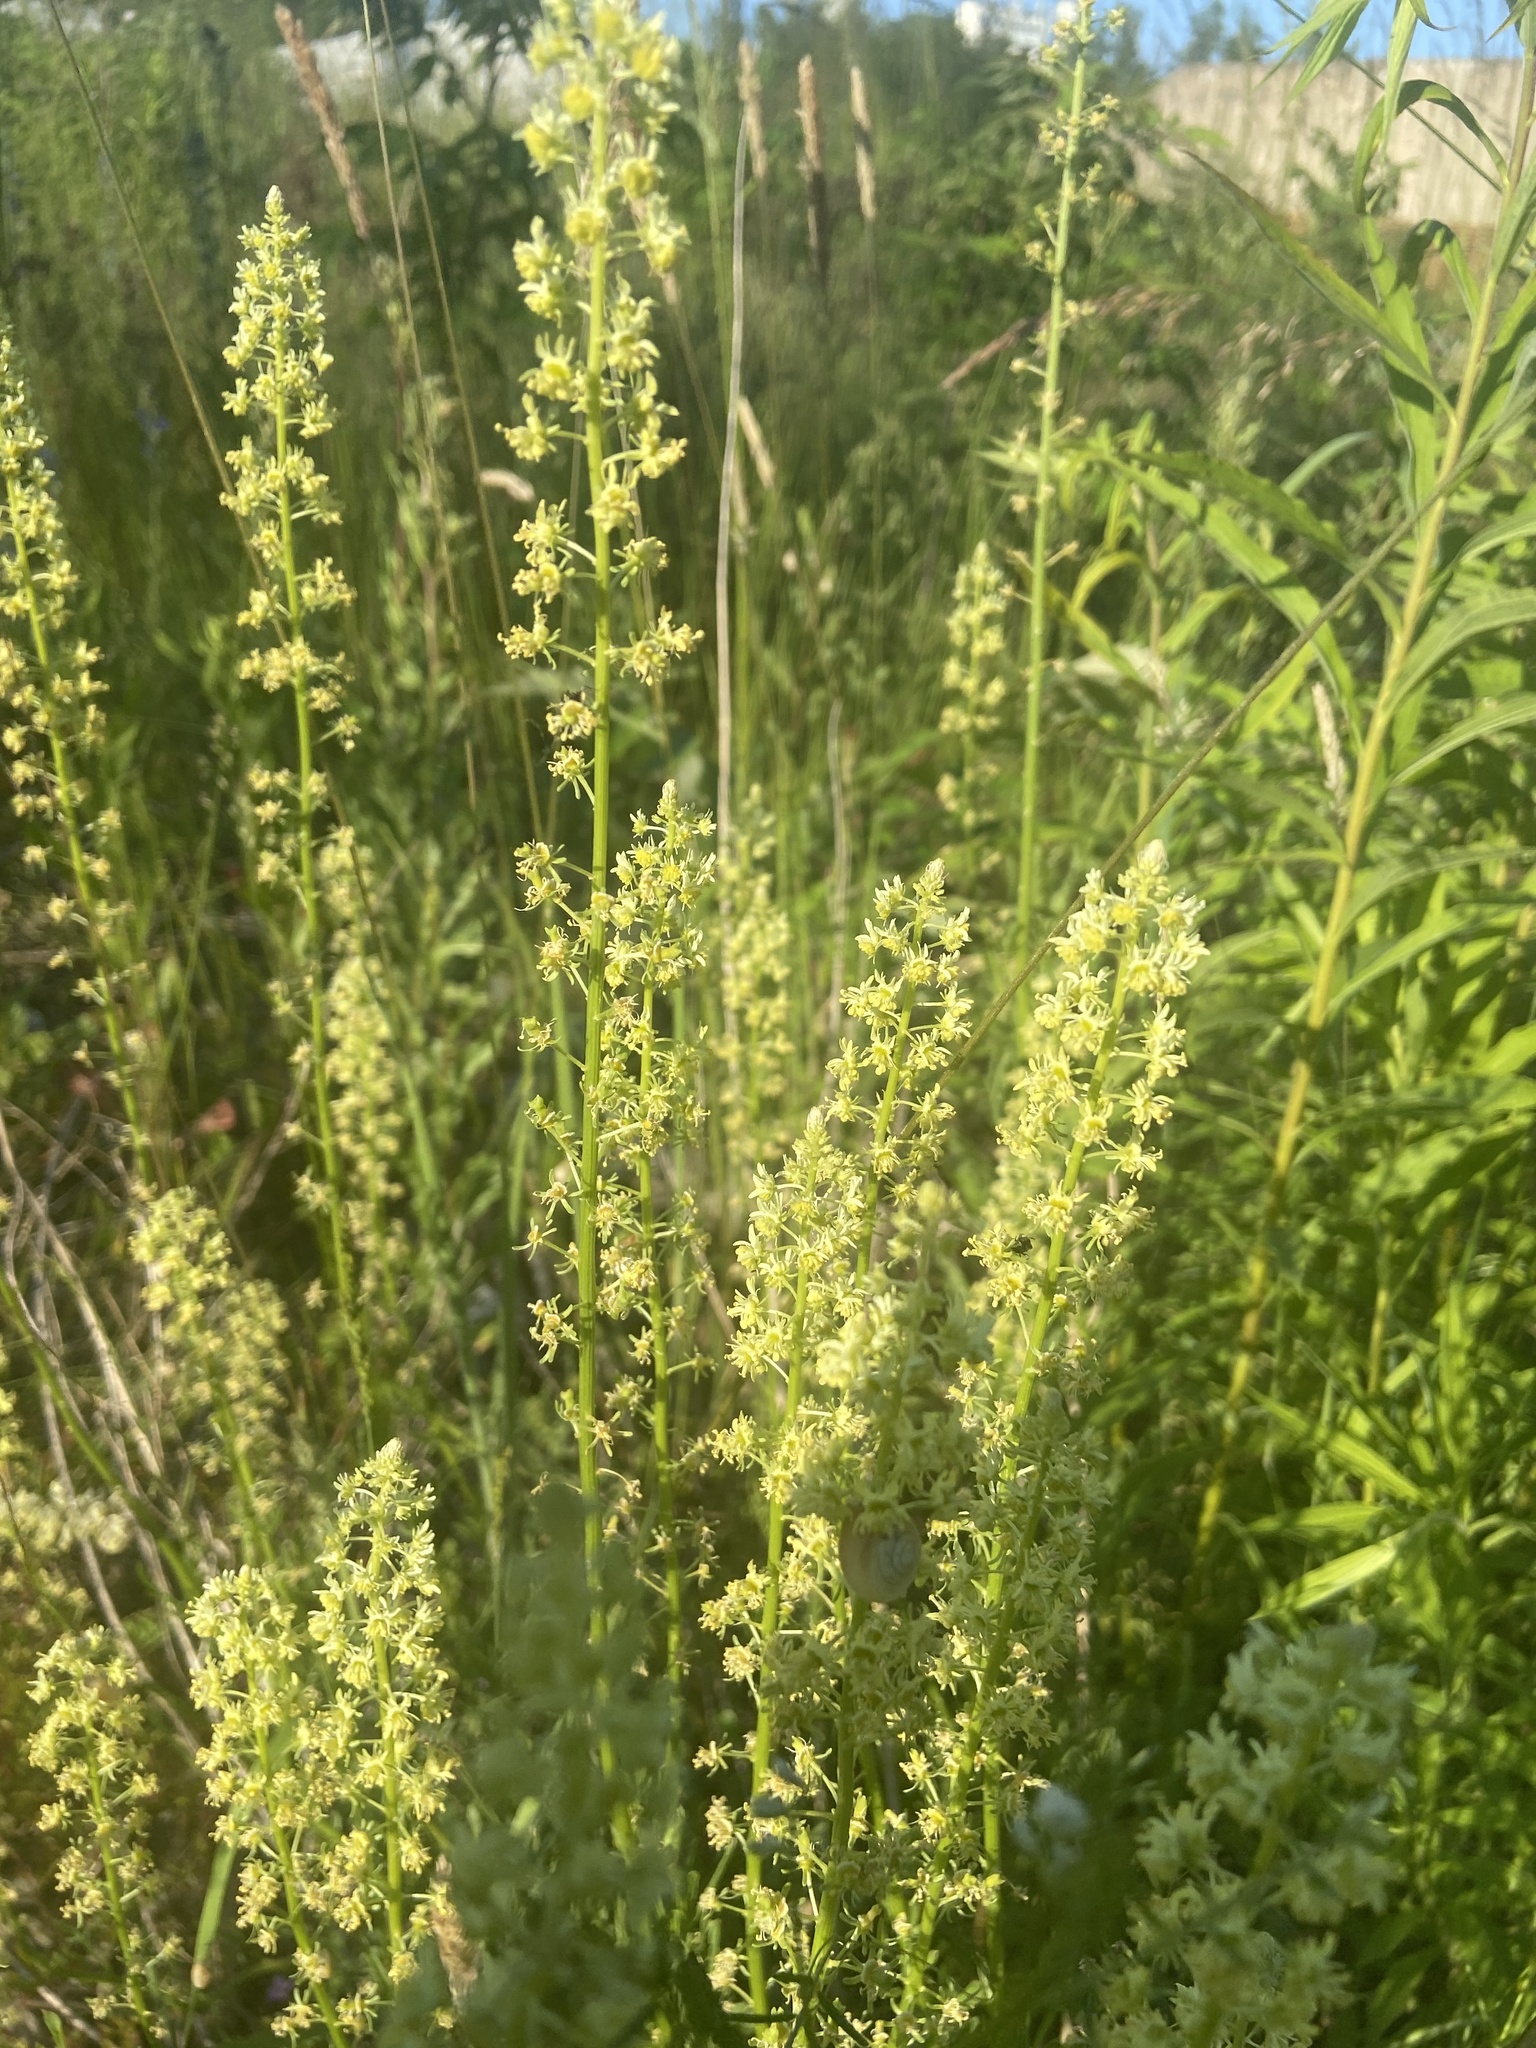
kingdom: Plantae
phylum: Tracheophyta
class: Magnoliopsida
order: Brassicales
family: Resedaceae
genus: Reseda
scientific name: Reseda lutea
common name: Wild mignonette
